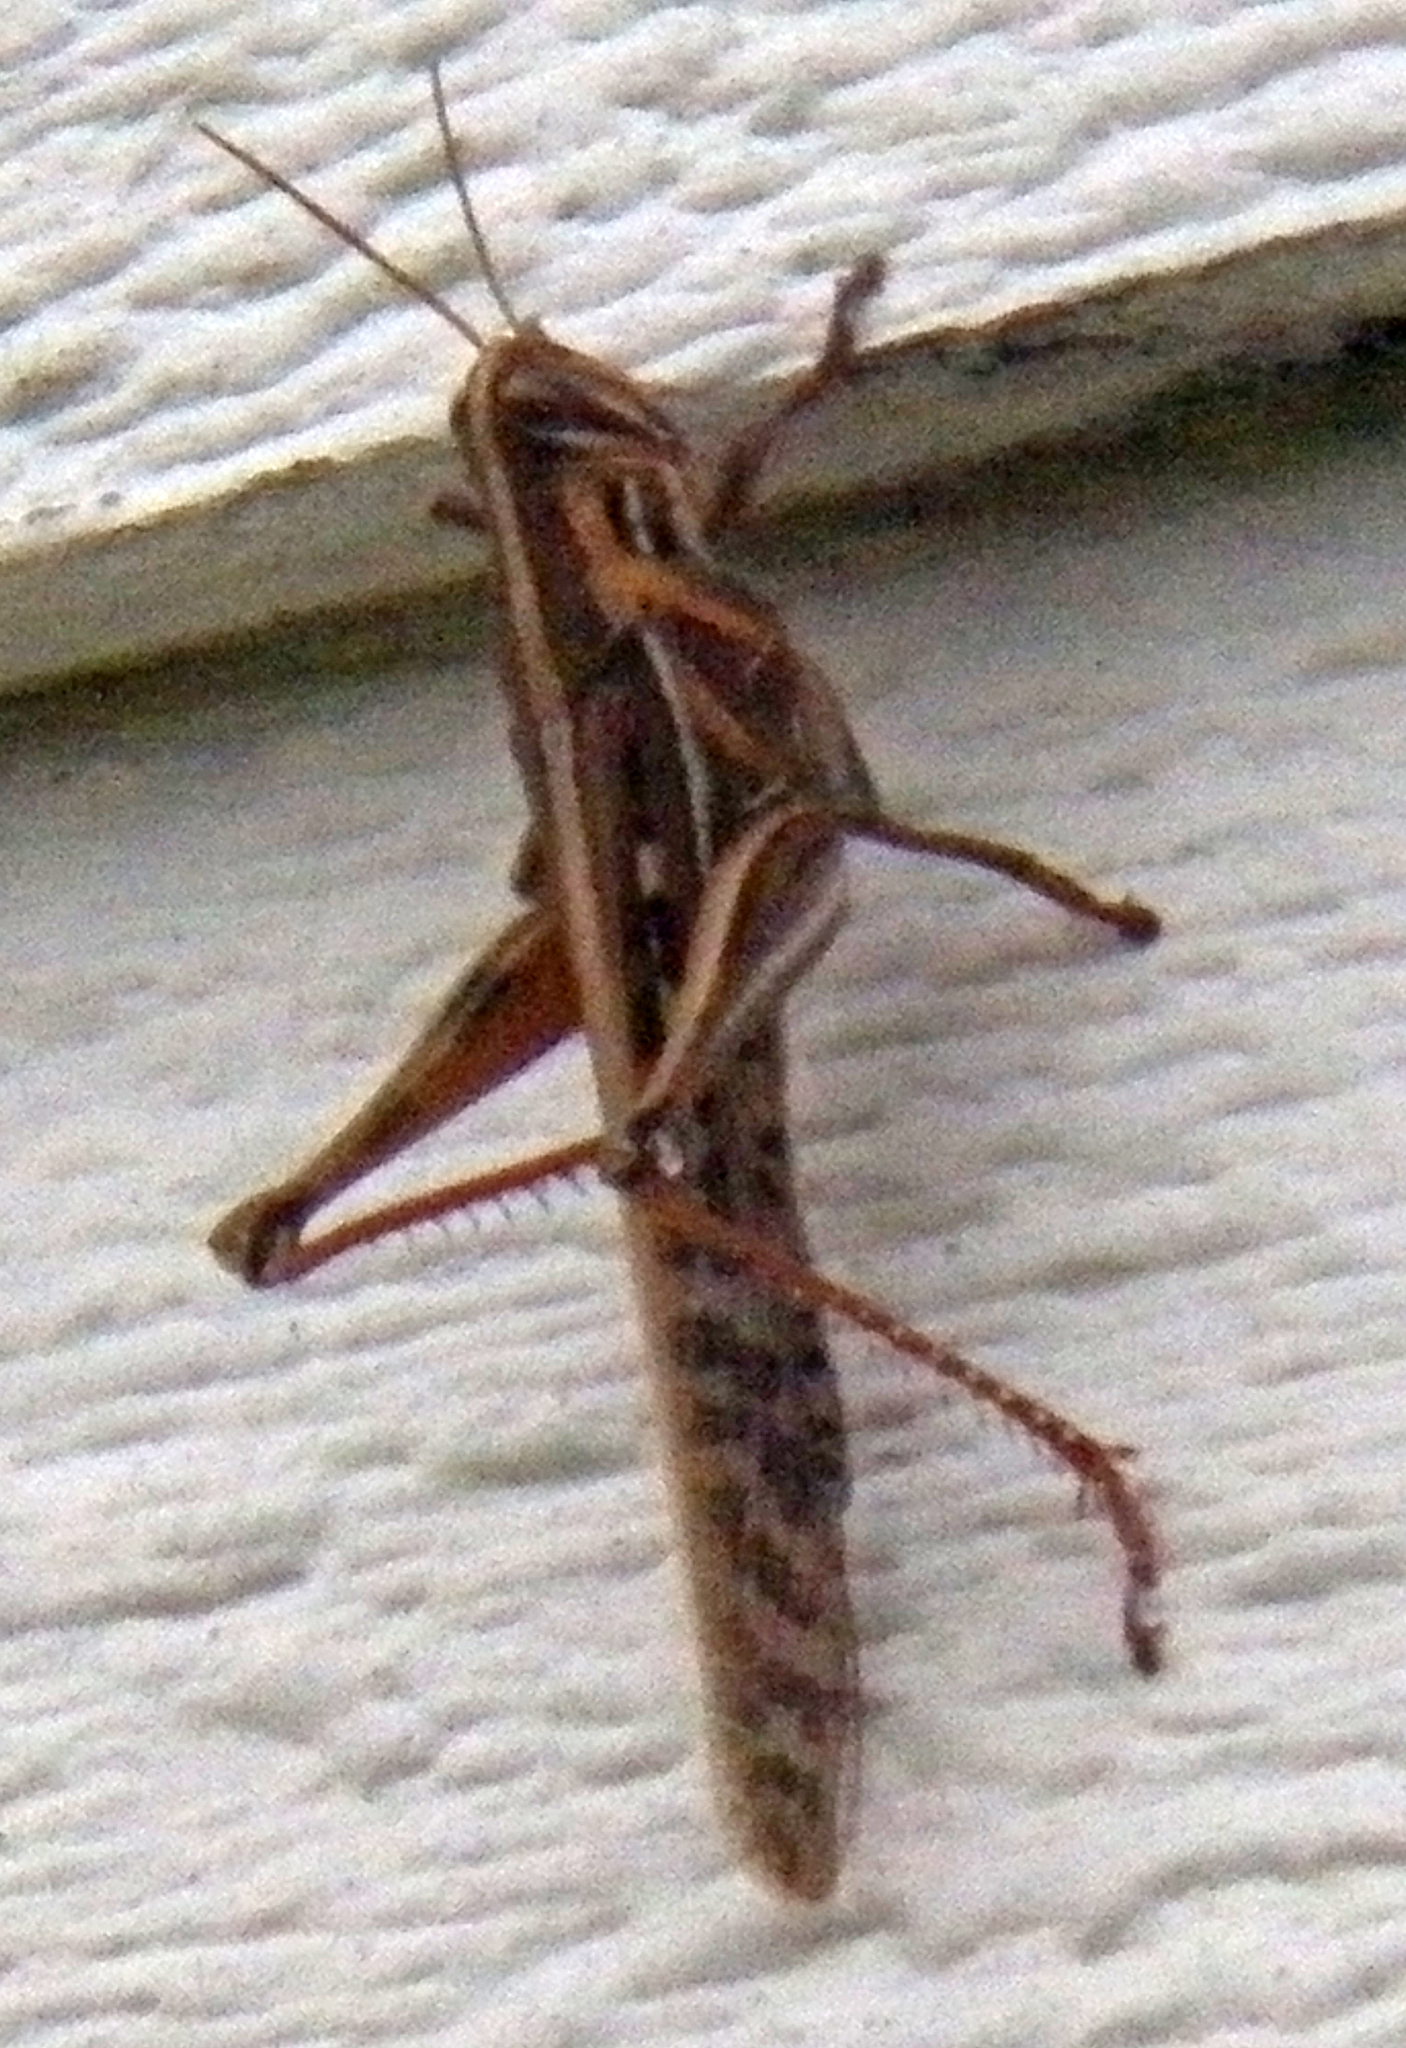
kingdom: Animalia
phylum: Arthropoda
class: Insecta
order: Orthoptera
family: Acrididae
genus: Schistocerca
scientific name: Schistocerca americana
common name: American bird locust
